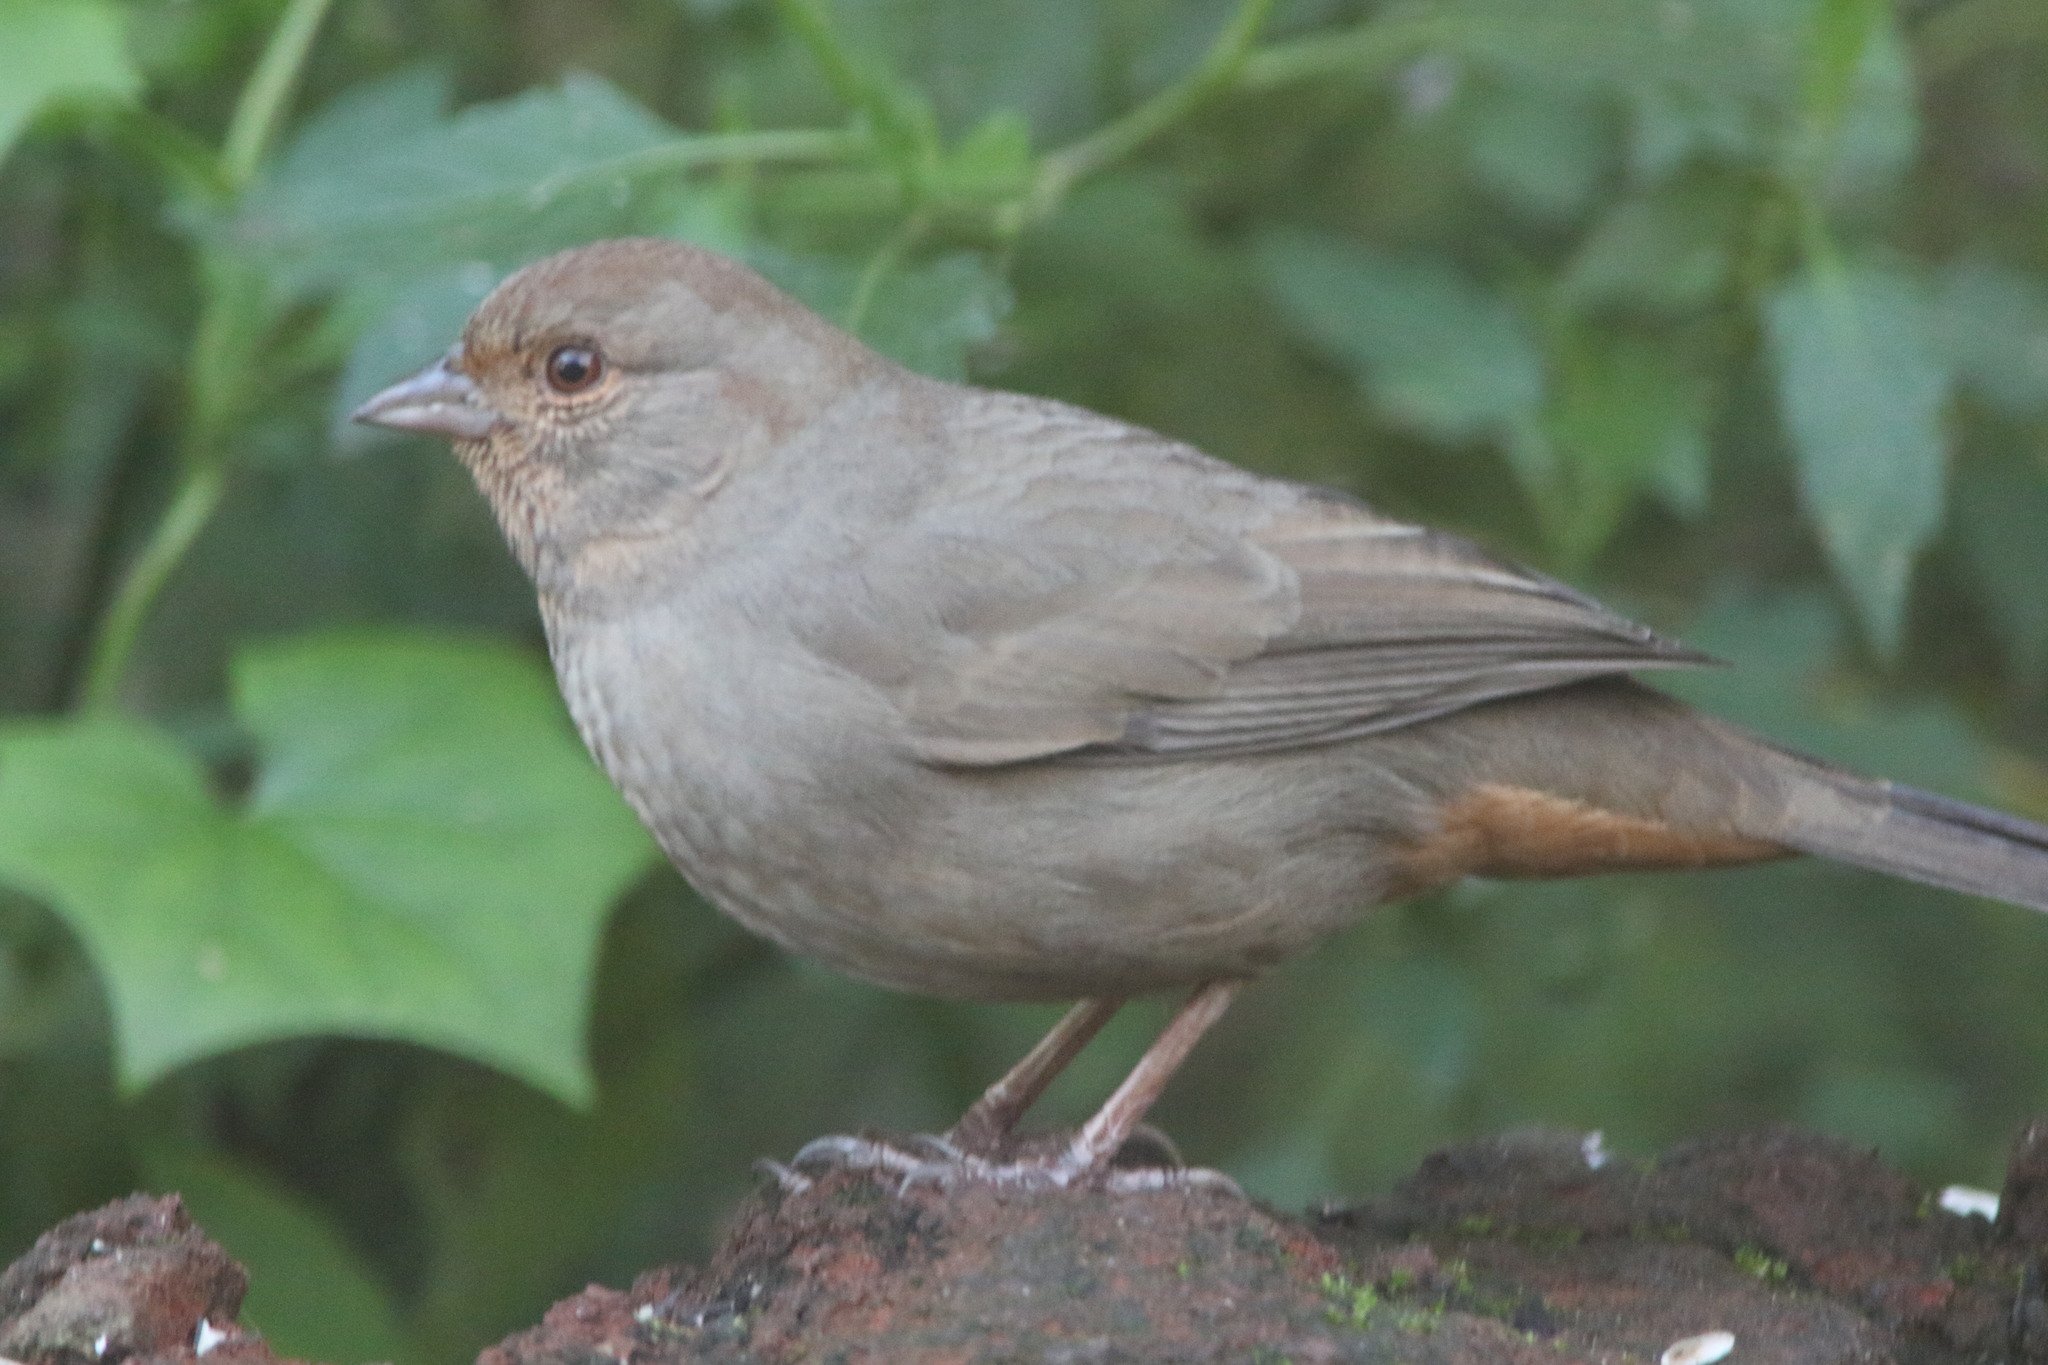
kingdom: Animalia
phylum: Chordata
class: Aves
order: Passeriformes
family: Passerellidae
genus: Melozone
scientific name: Melozone crissalis
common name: California towhee
